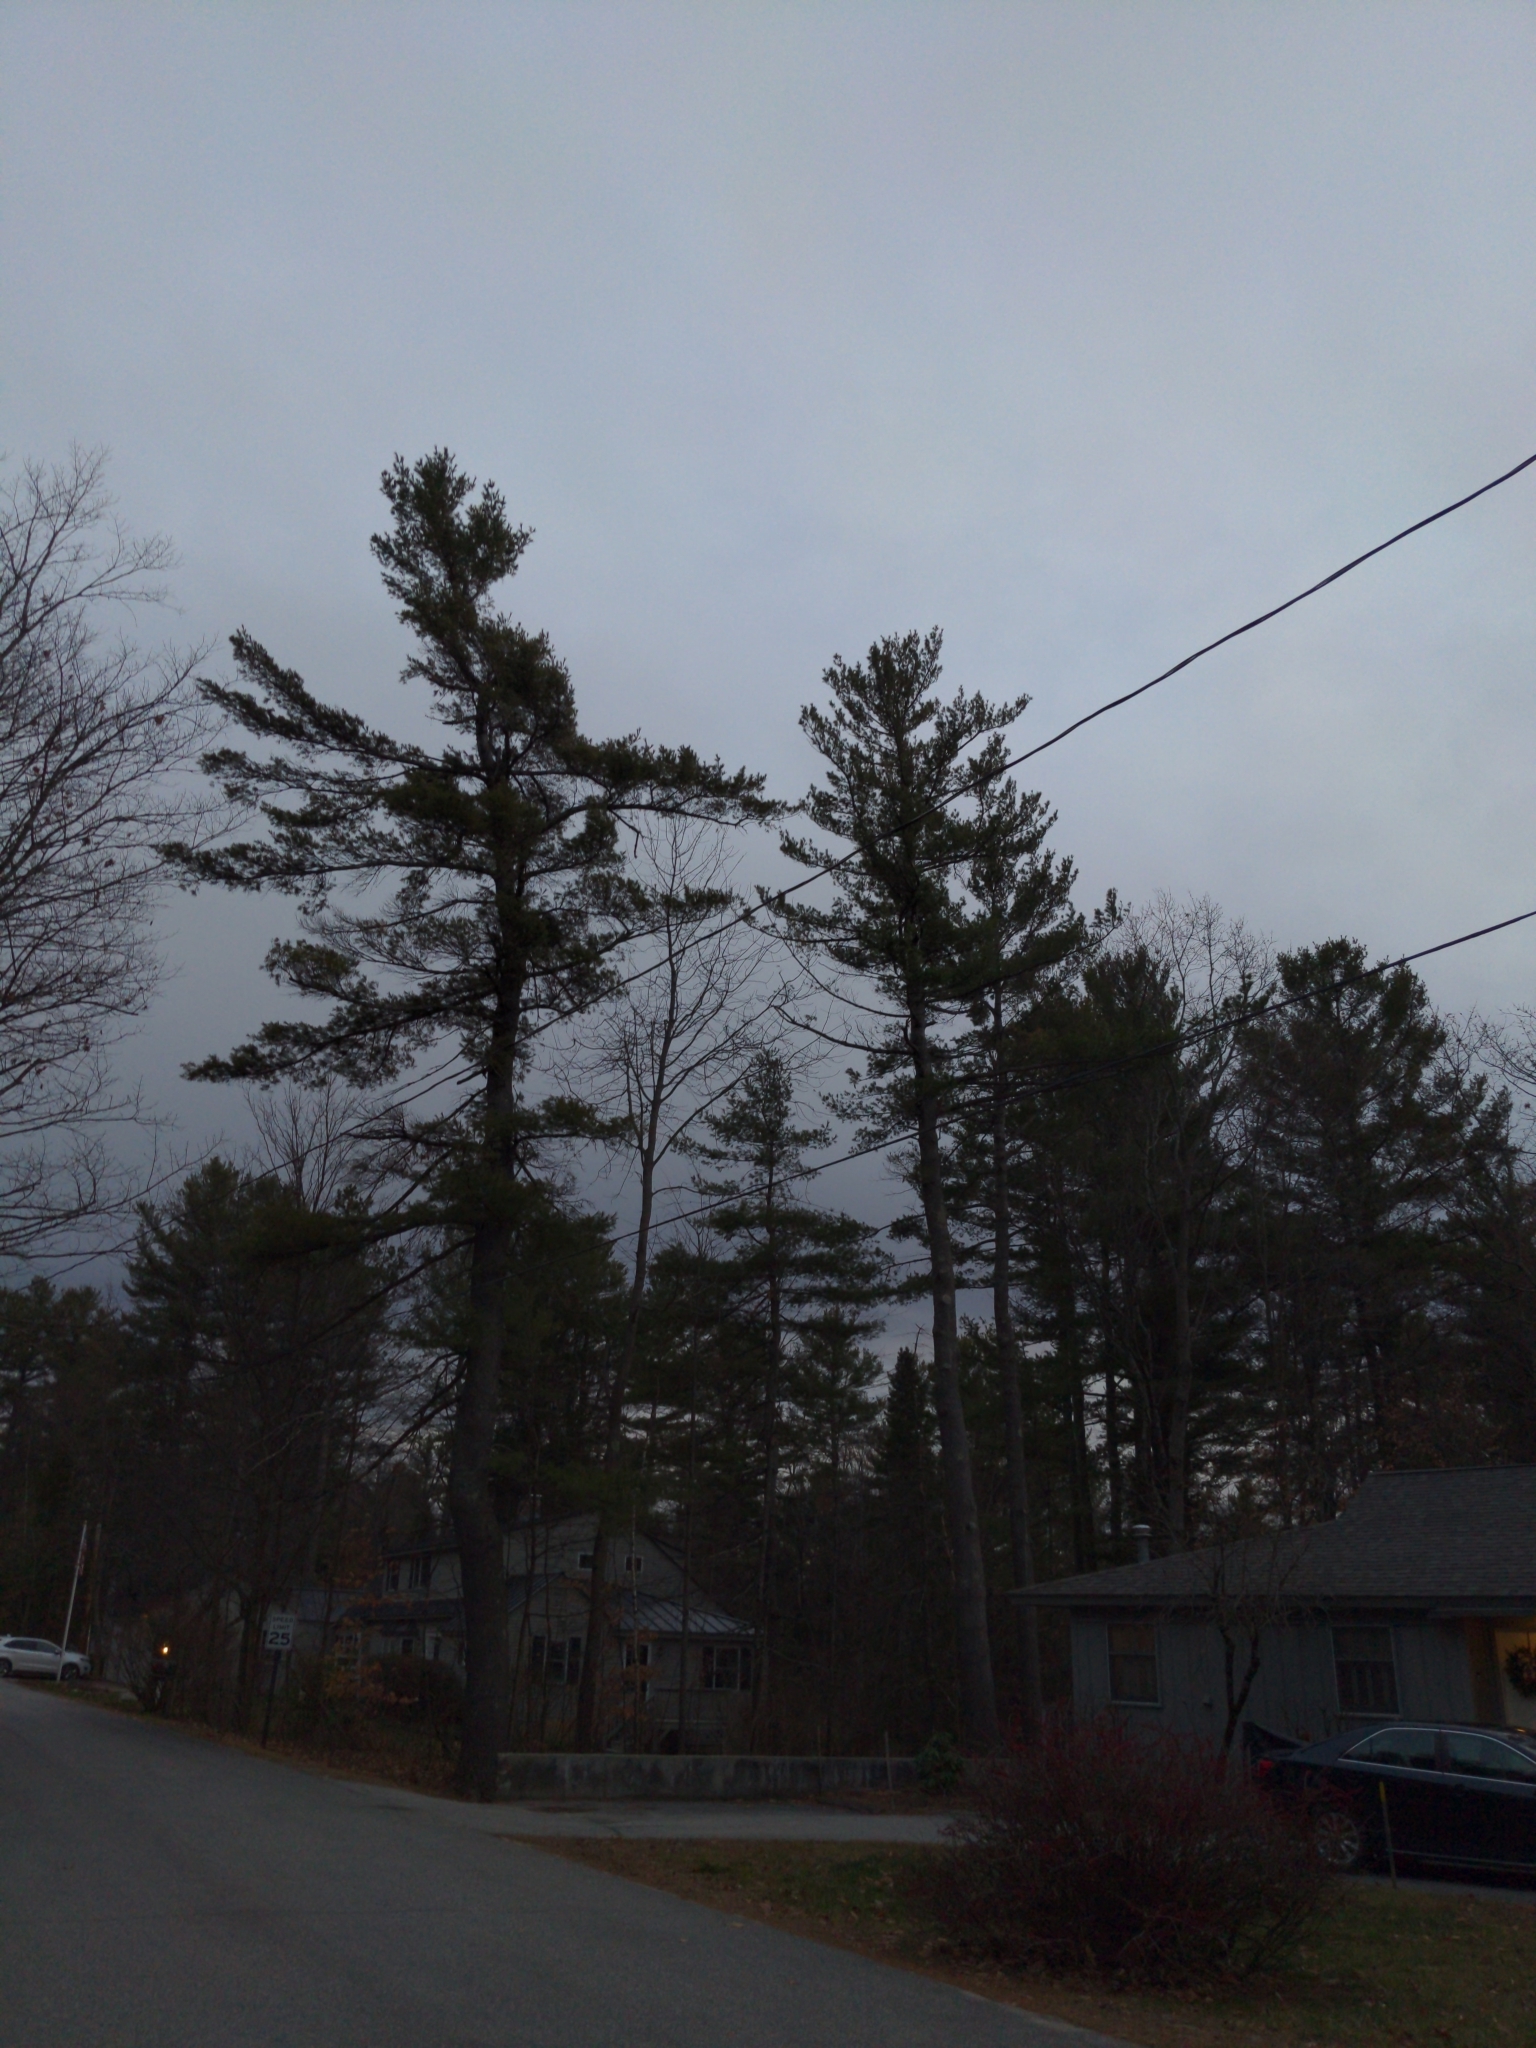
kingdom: Plantae
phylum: Tracheophyta
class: Pinopsida
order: Pinales
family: Pinaceae
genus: Pinus
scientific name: Pinus strobus
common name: Weymouth pine
